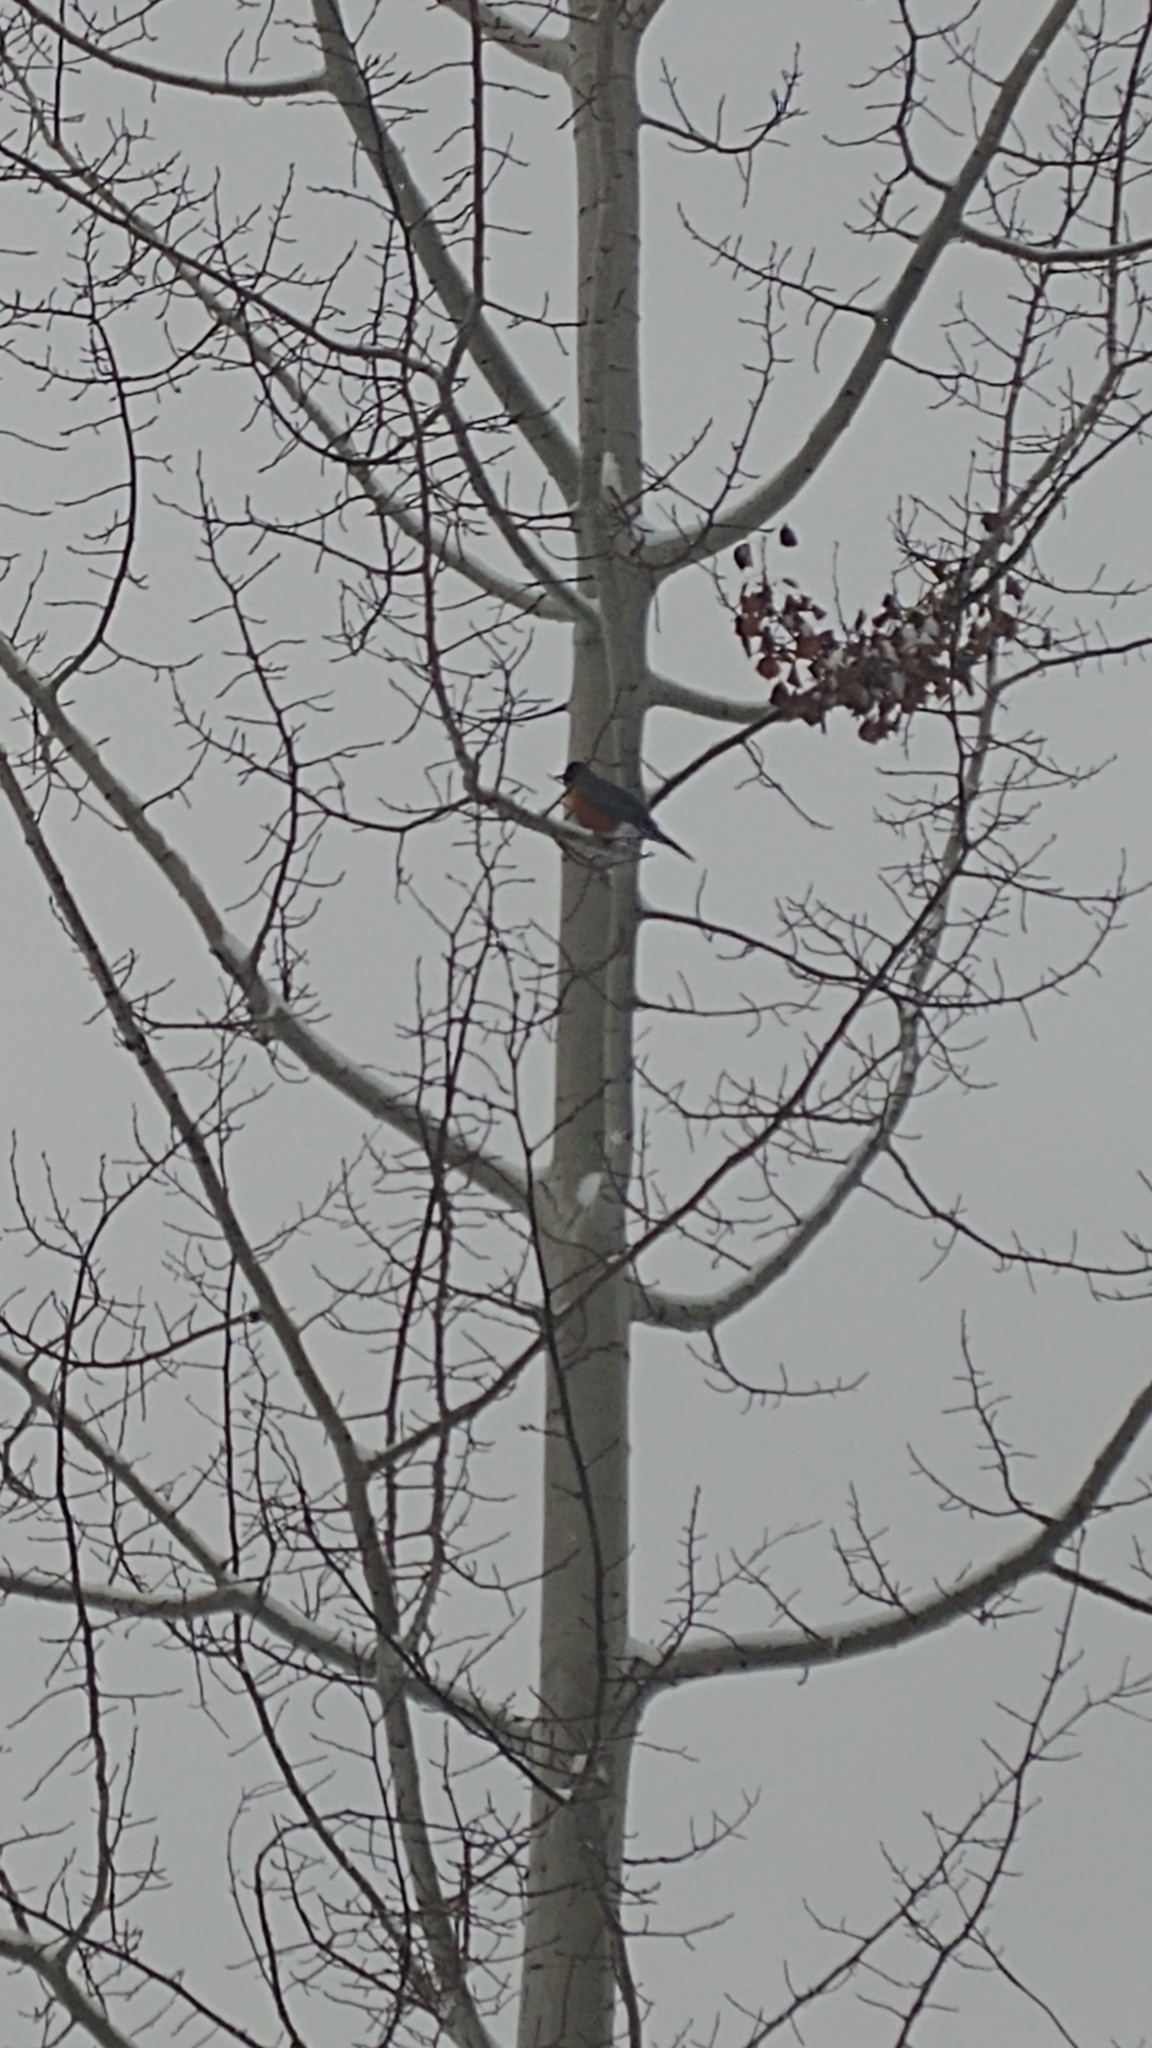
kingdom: Animalia
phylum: Chordata
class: Aves
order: Passeriformes
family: Turdidae
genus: Turdus
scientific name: Turdus migratorius
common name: American robin
